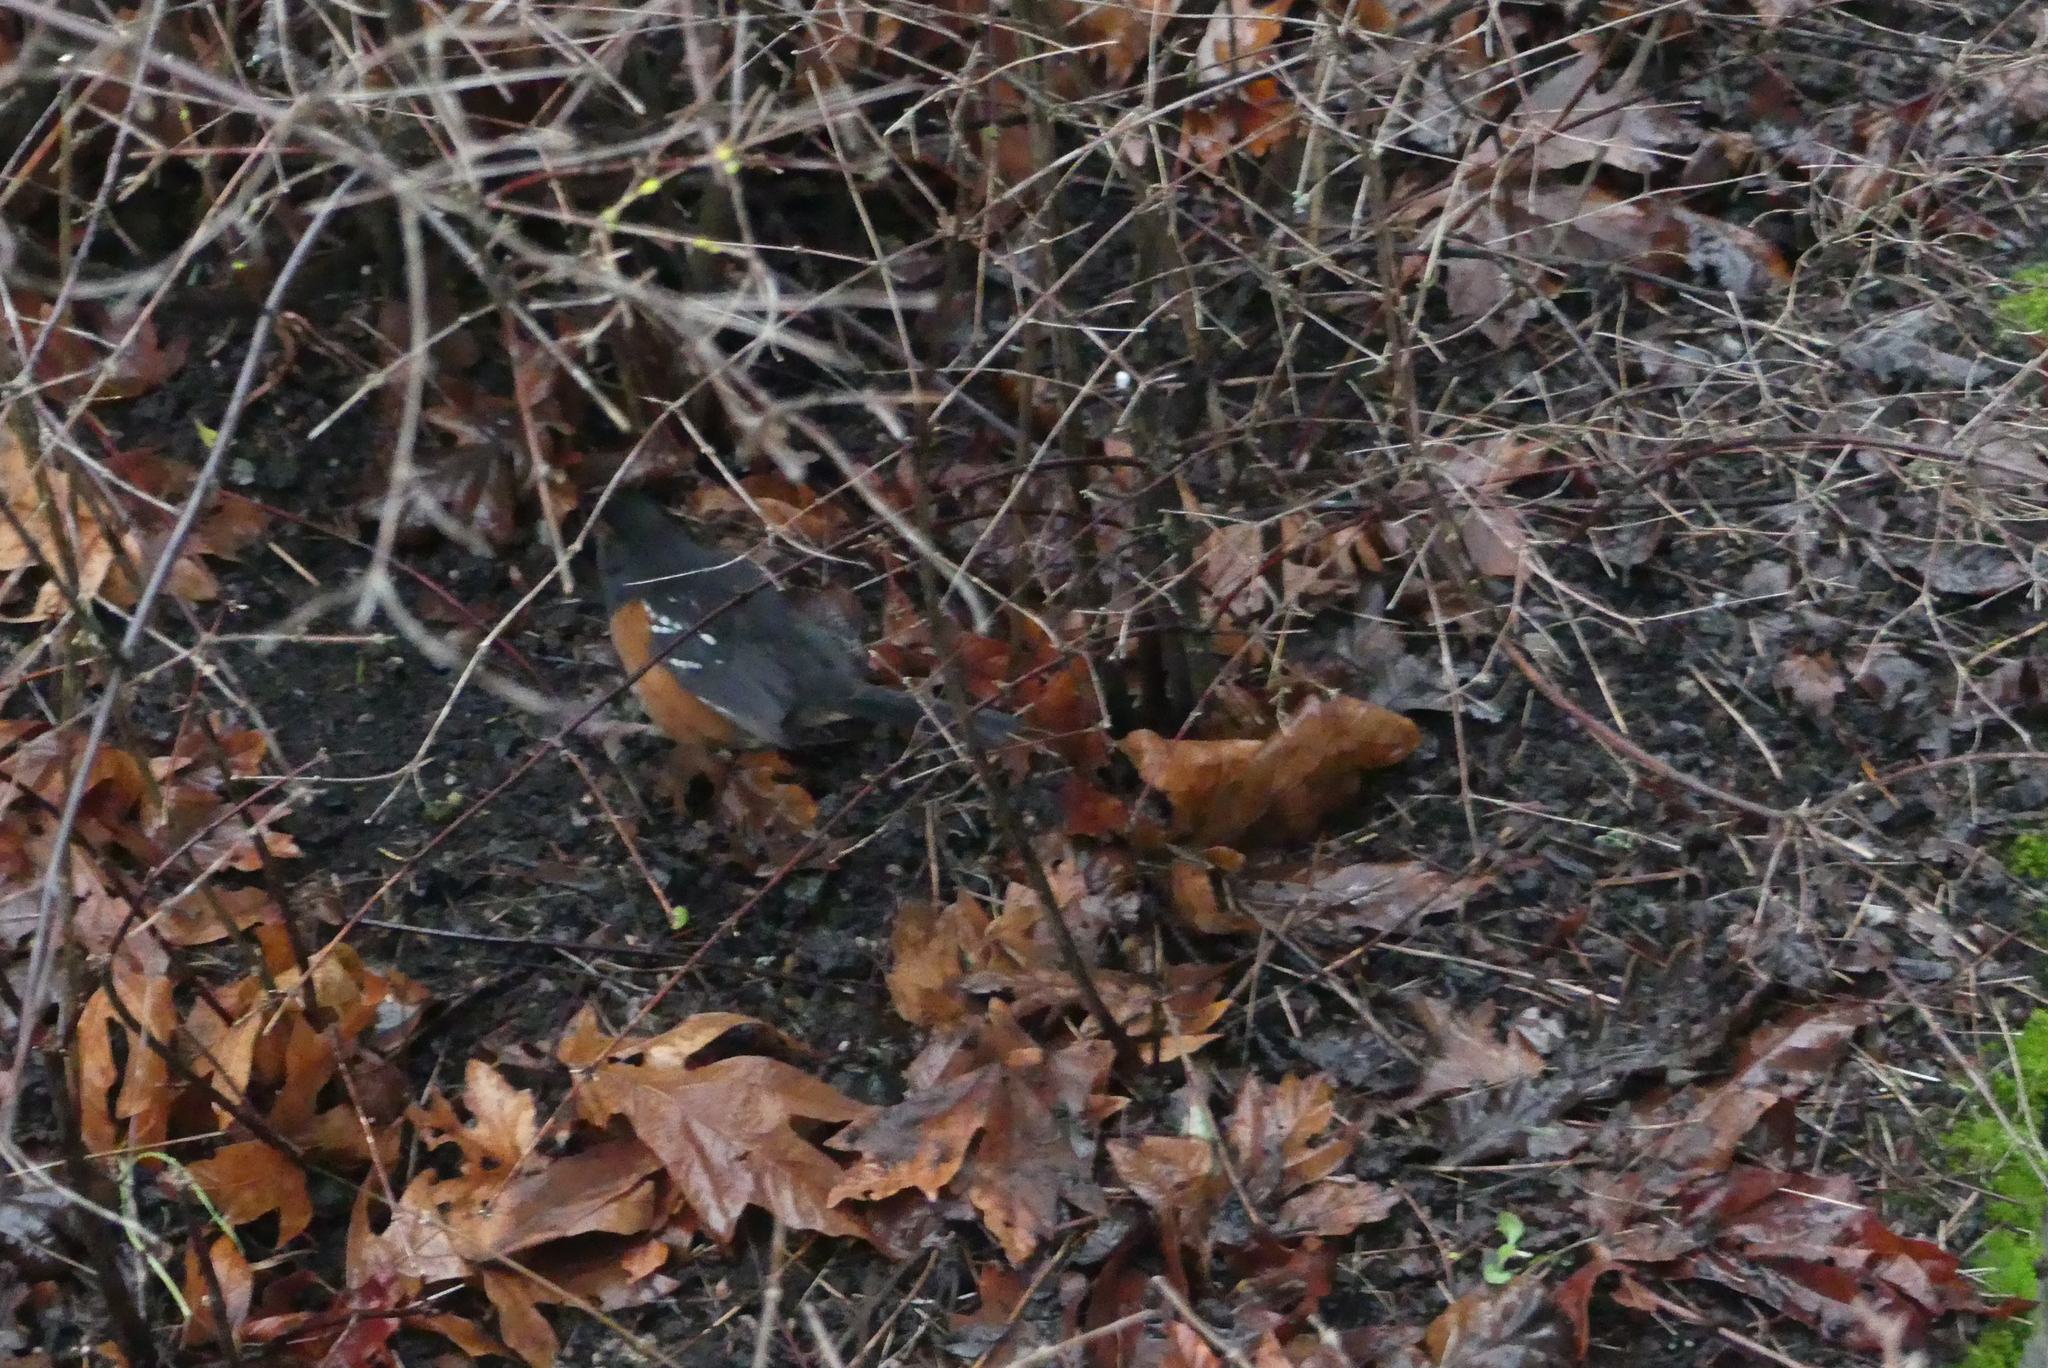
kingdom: Animalia
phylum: Chordata
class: Aves
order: Passeriformes
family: Passerellidae
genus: Pipilo
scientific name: Pipilo maculatus
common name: Spotted towhee
